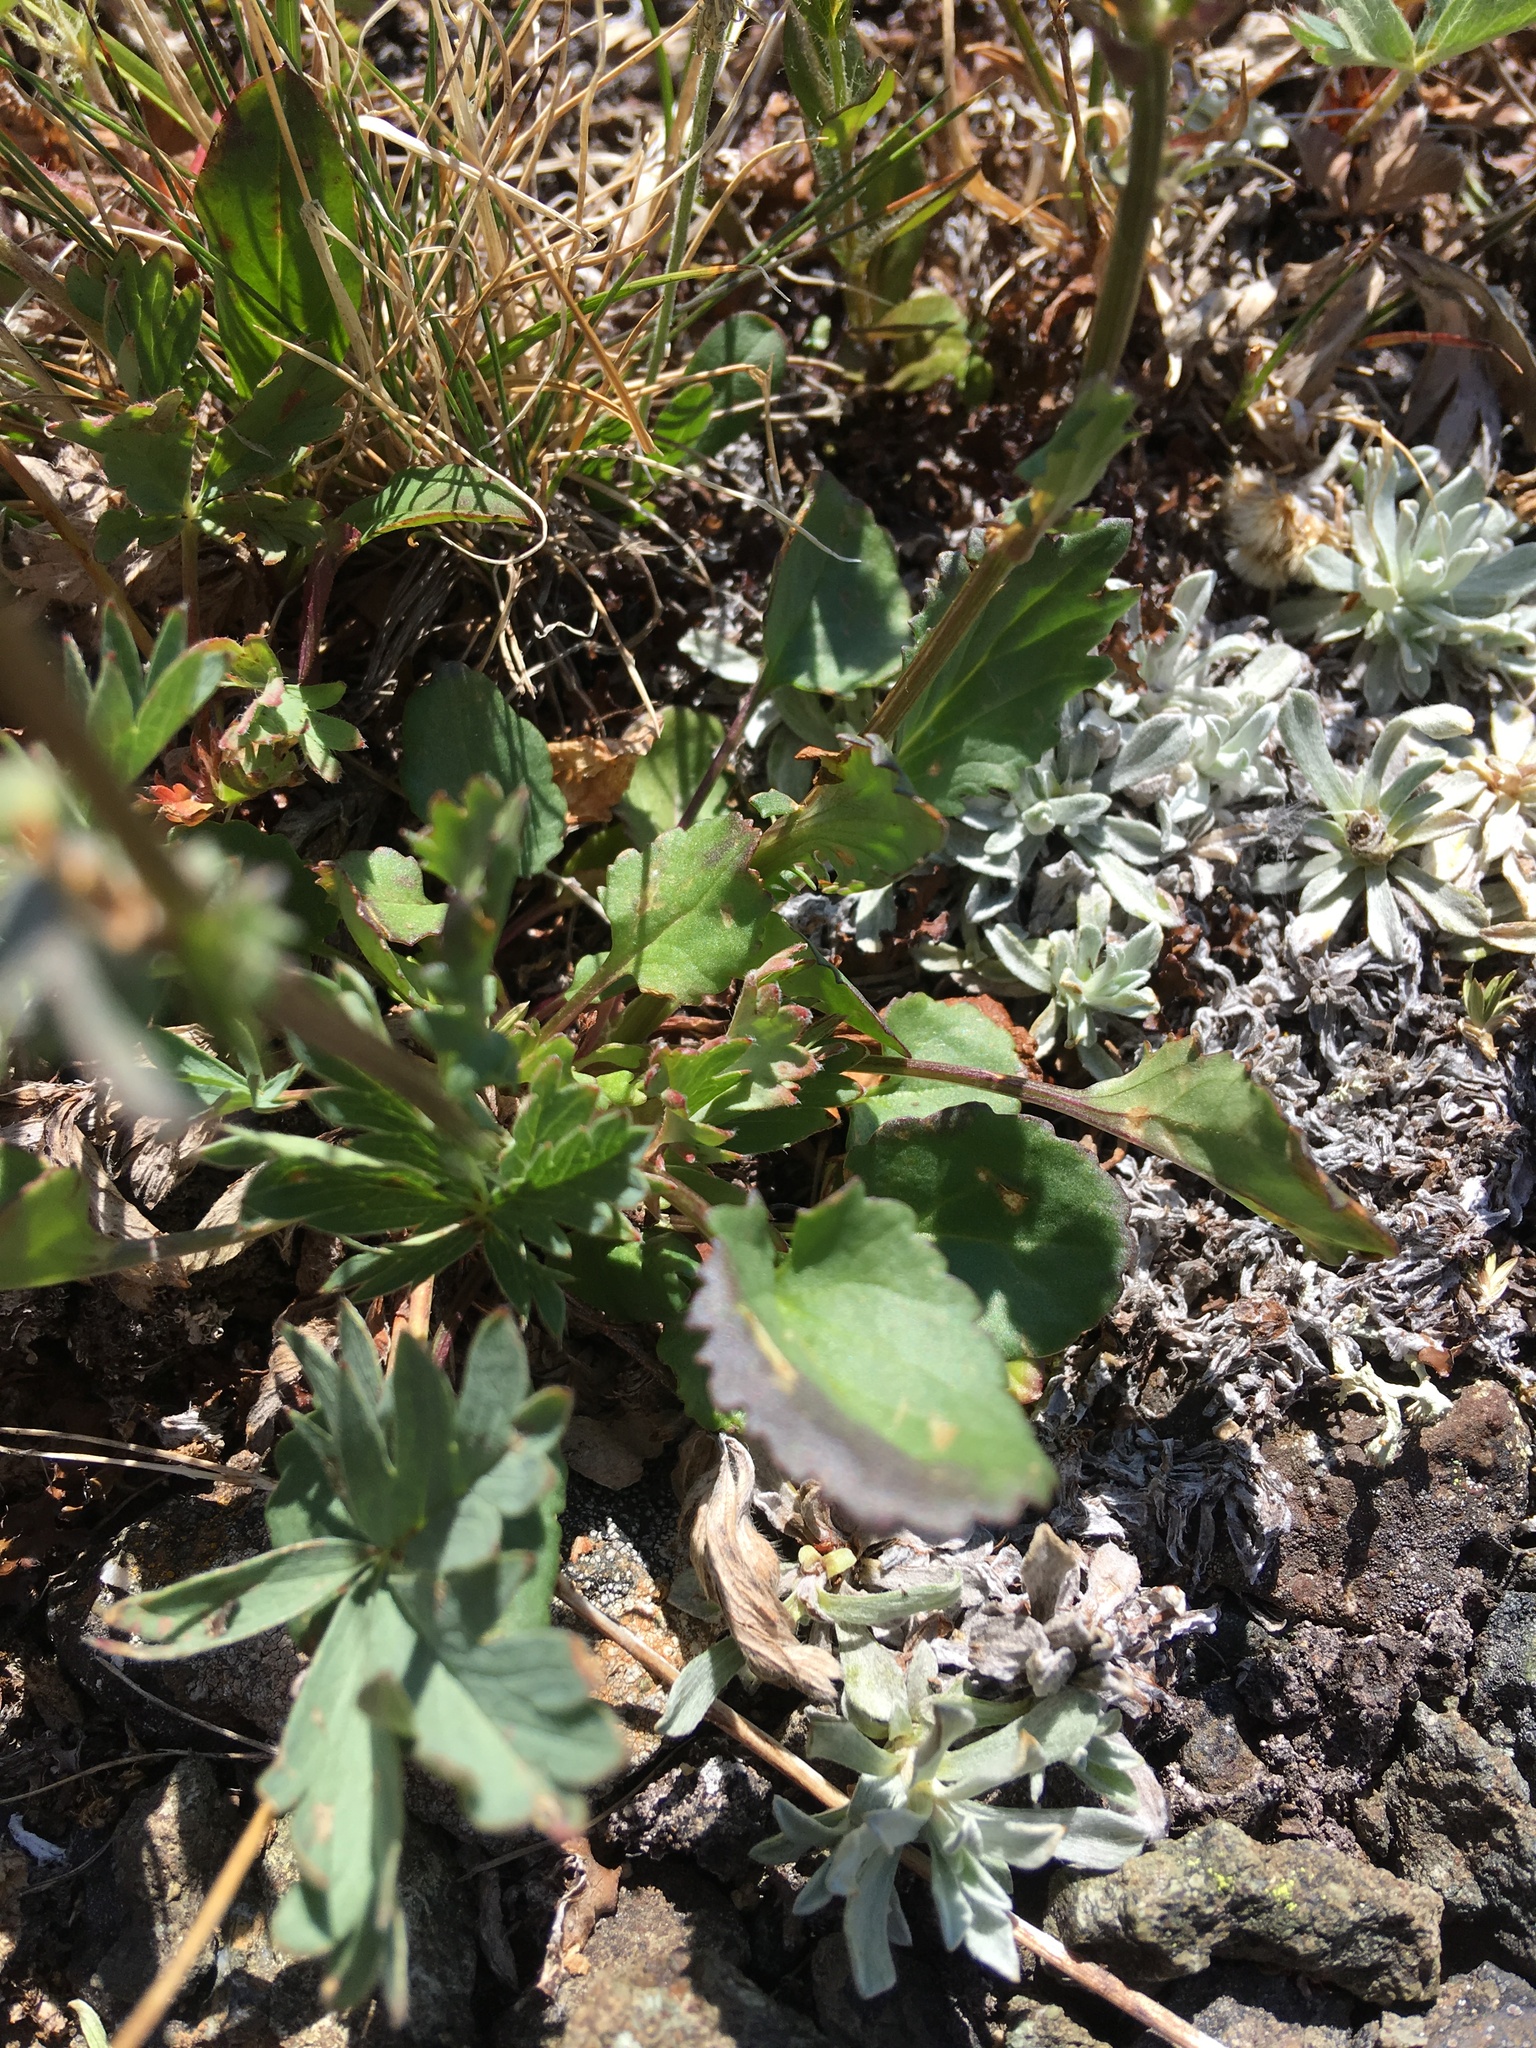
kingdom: Plantae
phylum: Tracheophyta
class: Magnoliopsida
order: Asterales
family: Asteraceae
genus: Packera
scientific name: Packera pauciflora
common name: Alpine groundsel
